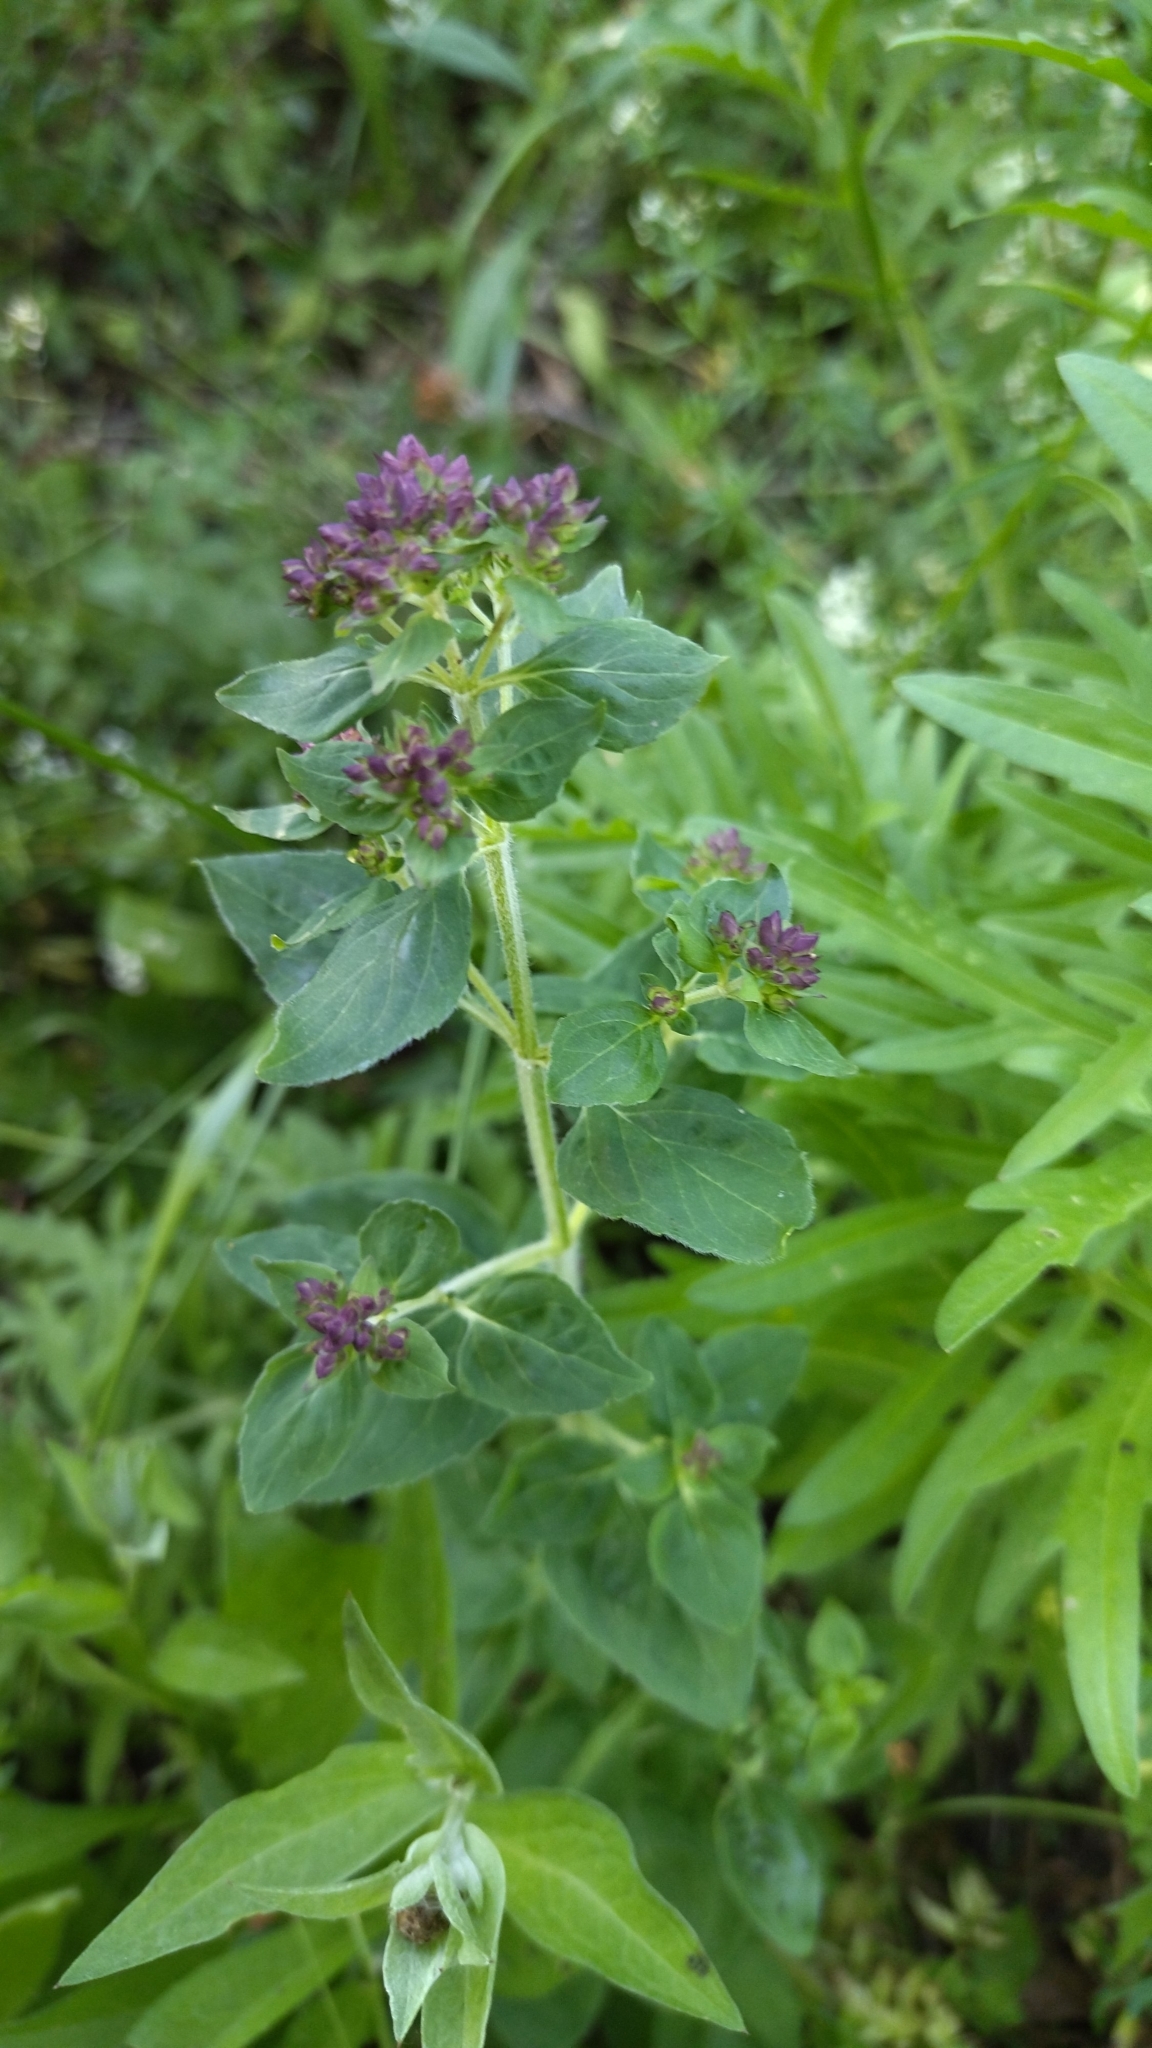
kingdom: Plantae
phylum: Tracheophyta
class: Magnoliopsida
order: Lamiales
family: Lamiaceae
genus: Origanum
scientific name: Origanum vulgare
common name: Wild marjoram
